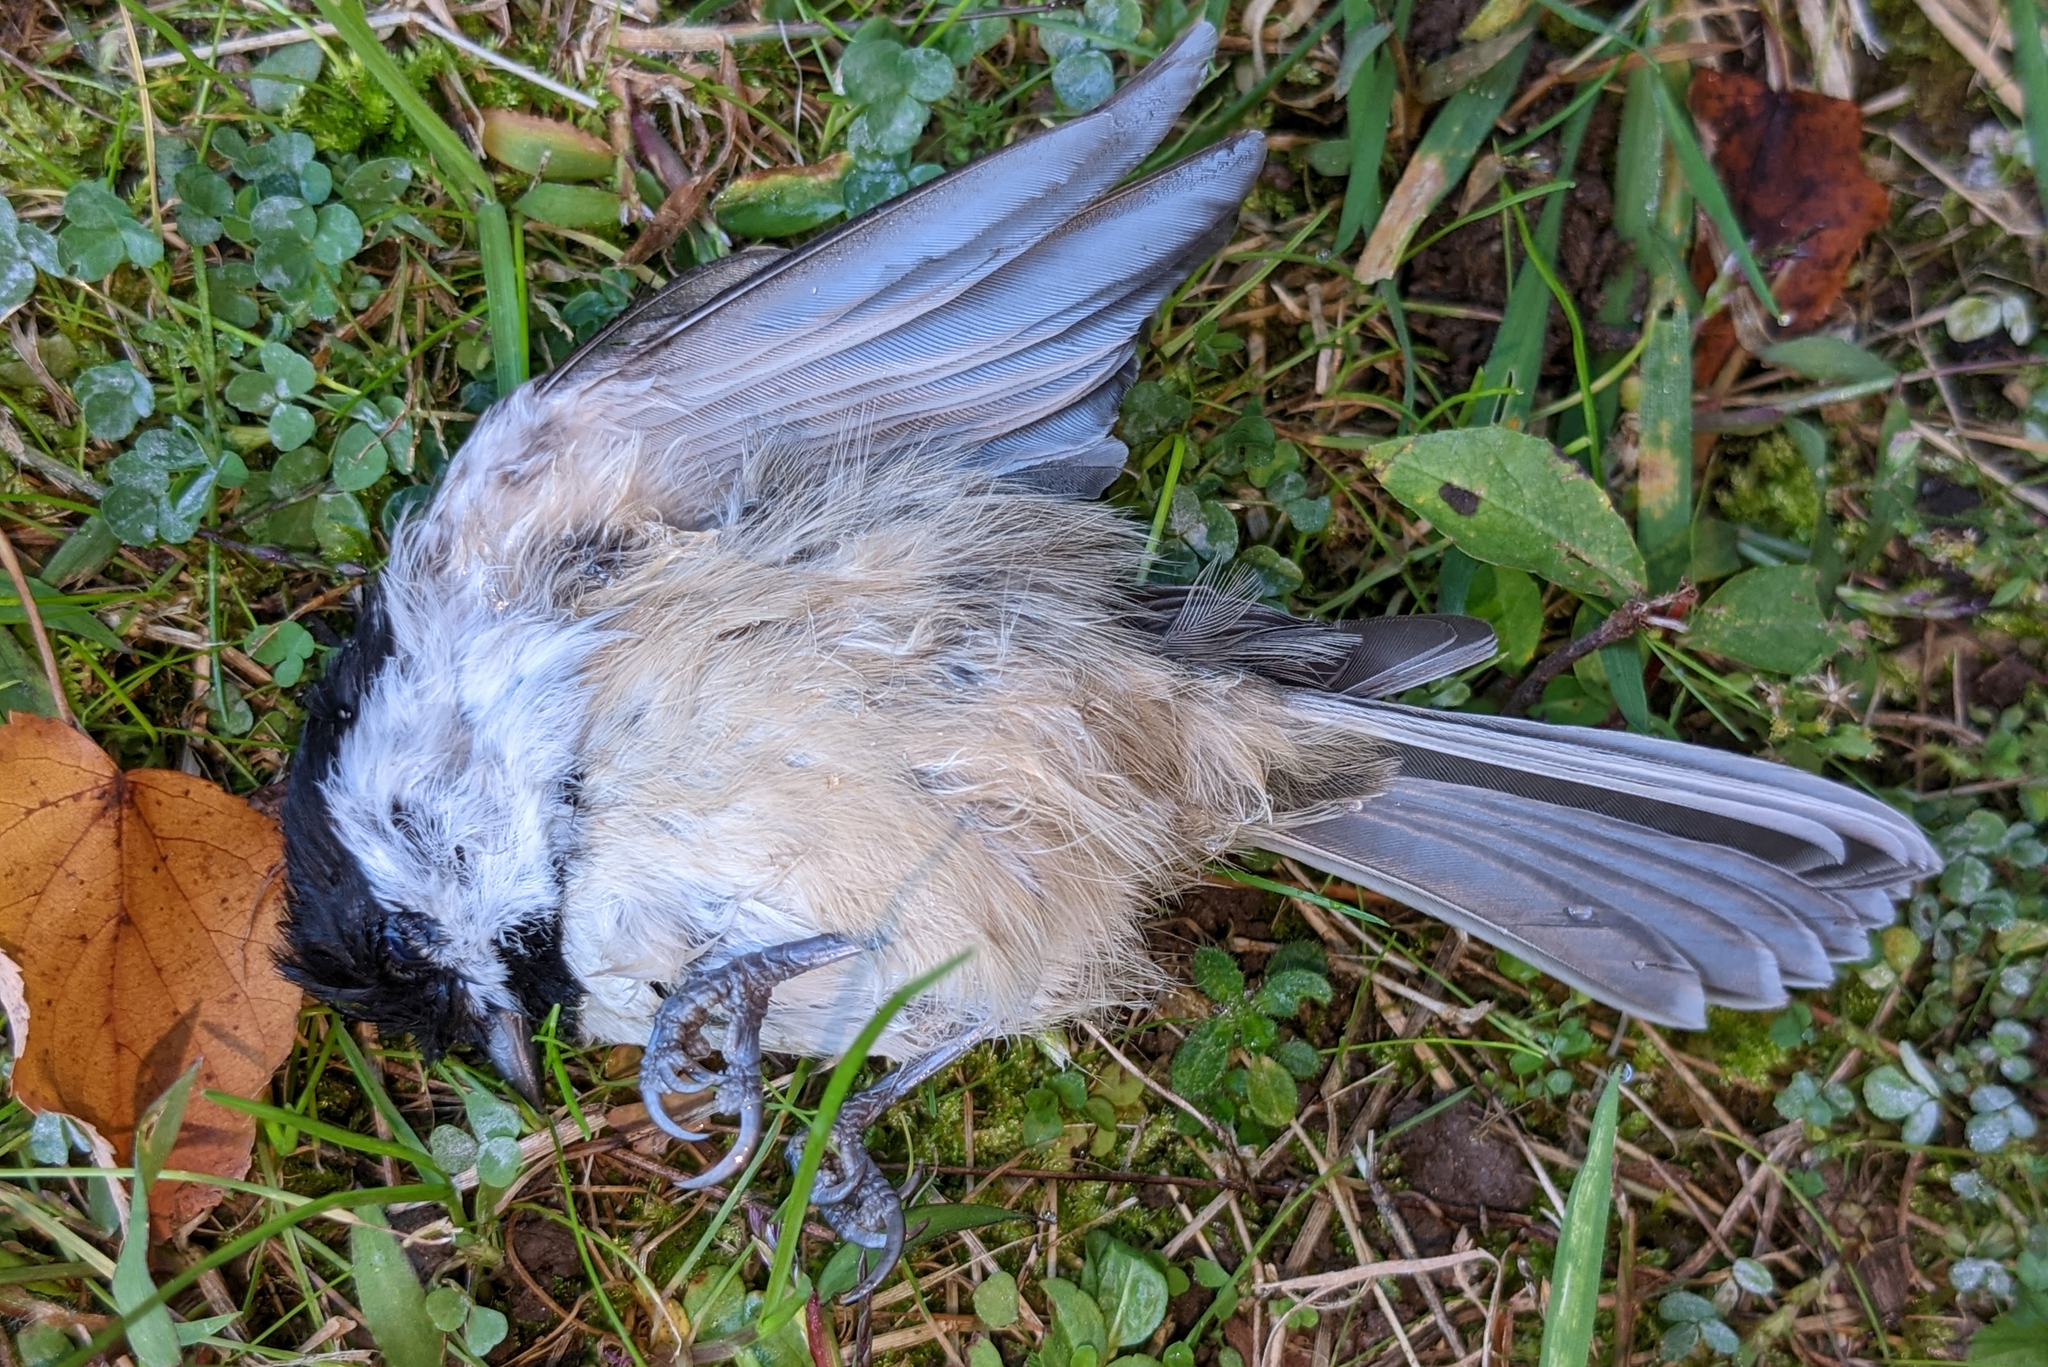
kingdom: Animalia
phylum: Chordata
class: Aves
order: Passeriformes
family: Paridae
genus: Poecile
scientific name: Poecile atricapillus
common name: Black-capped chickadee
